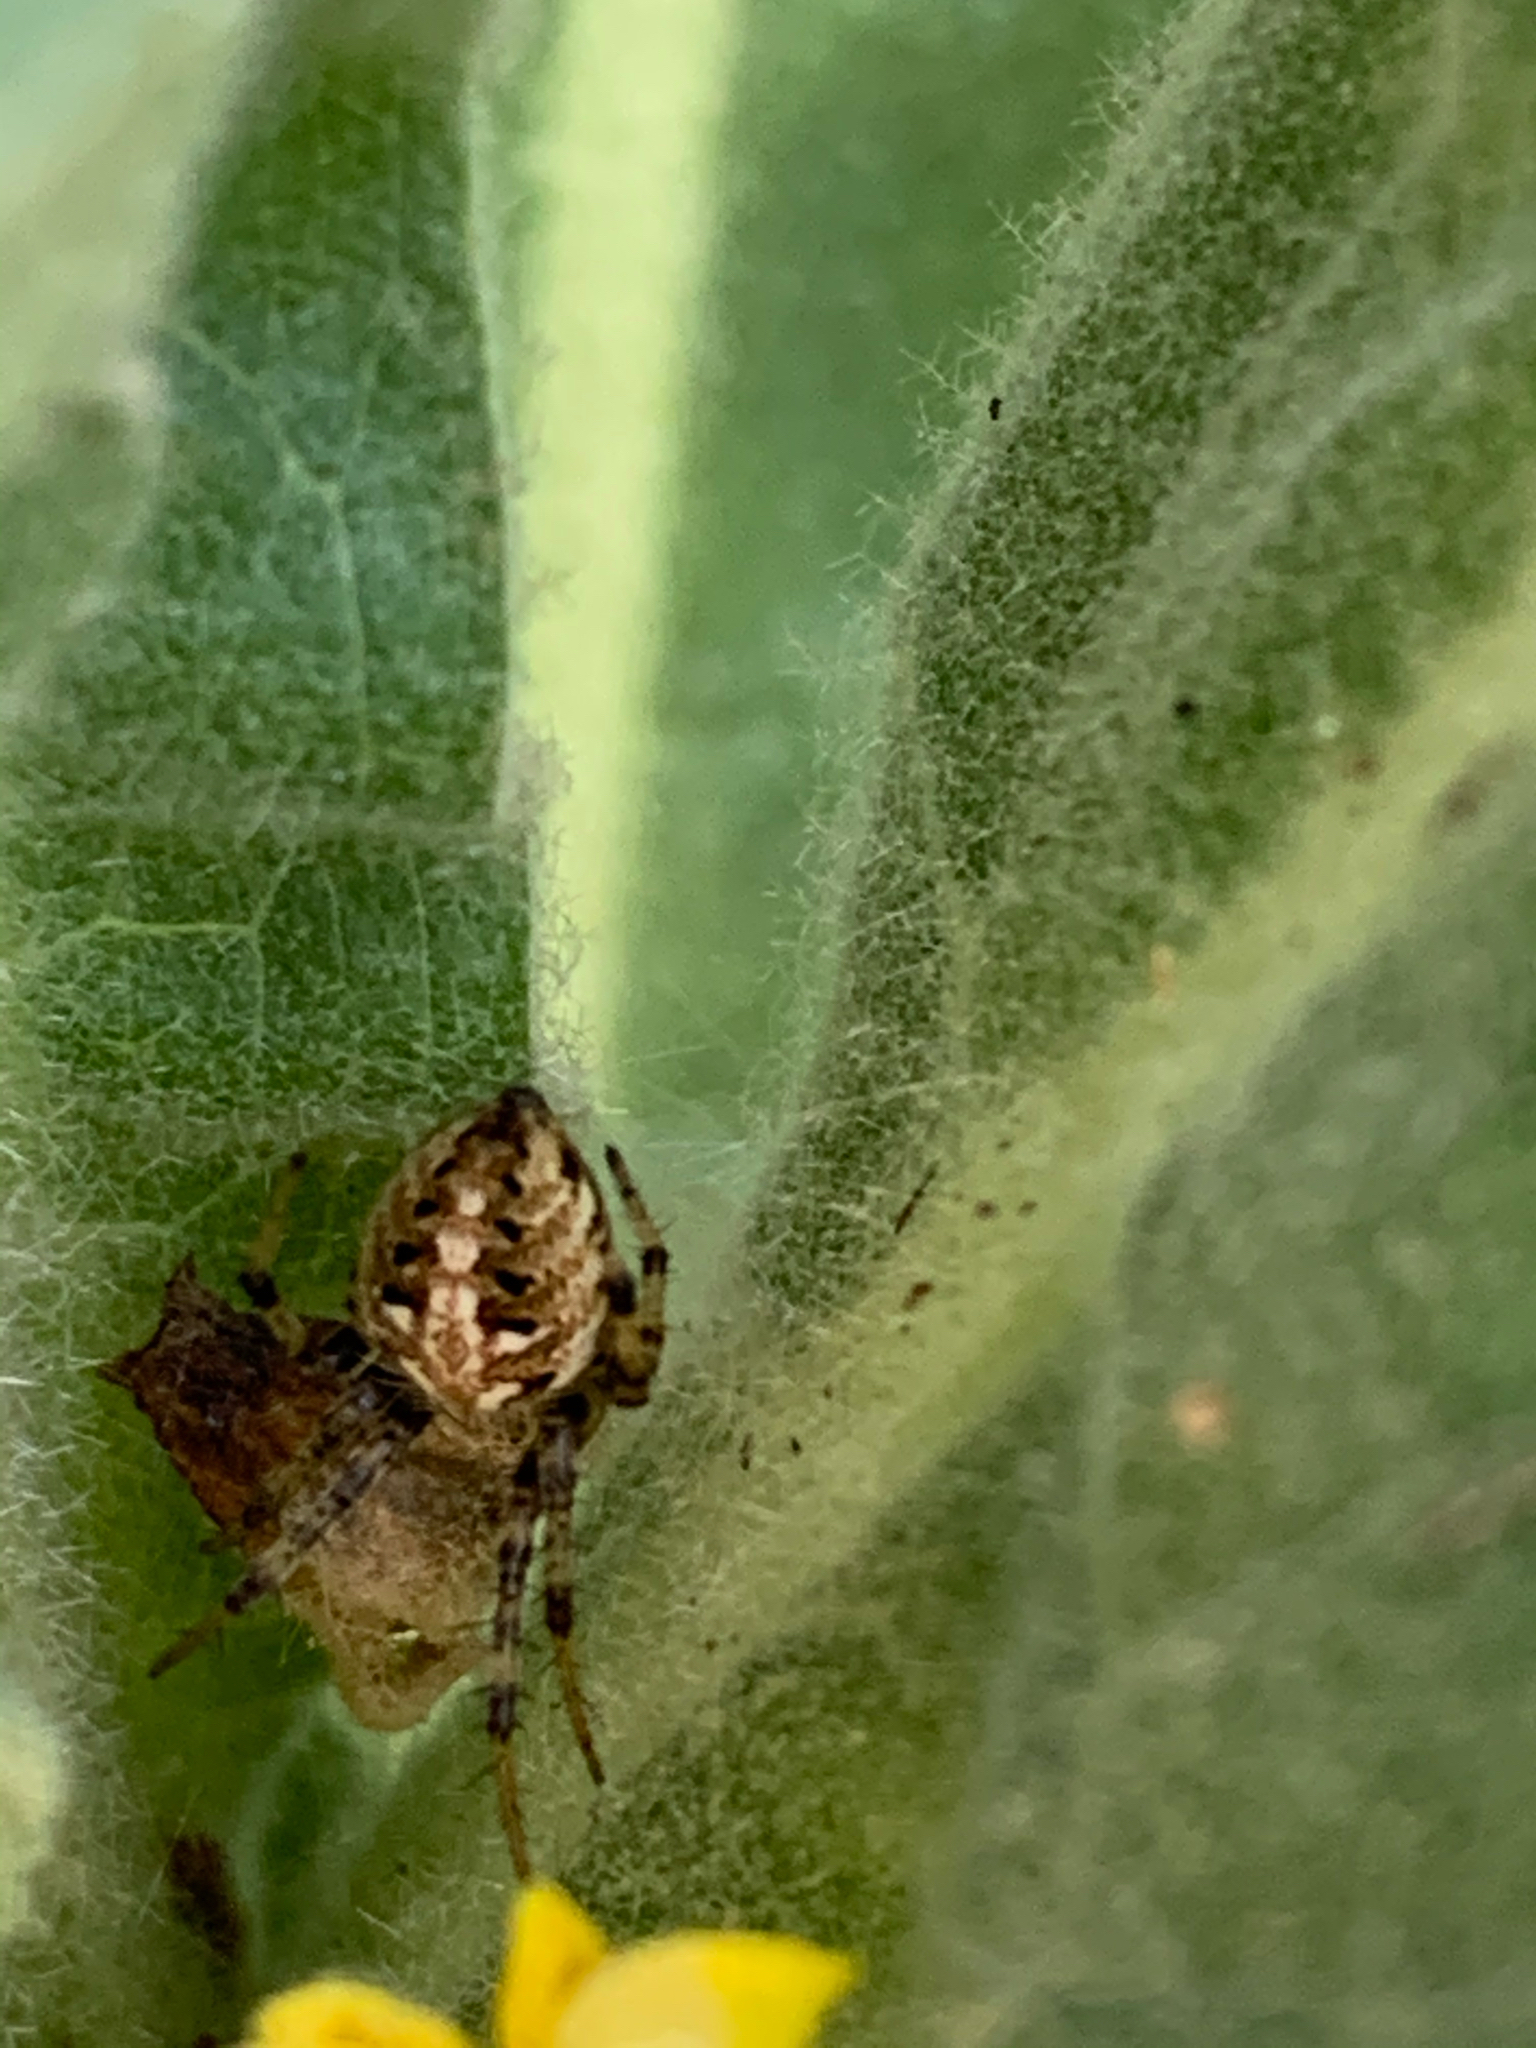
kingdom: Animalia
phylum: Arthropoda
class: Arachnida
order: Araneae
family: Araneidae
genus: Neoscona
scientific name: Neoscona arabesca
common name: Orb weavers
